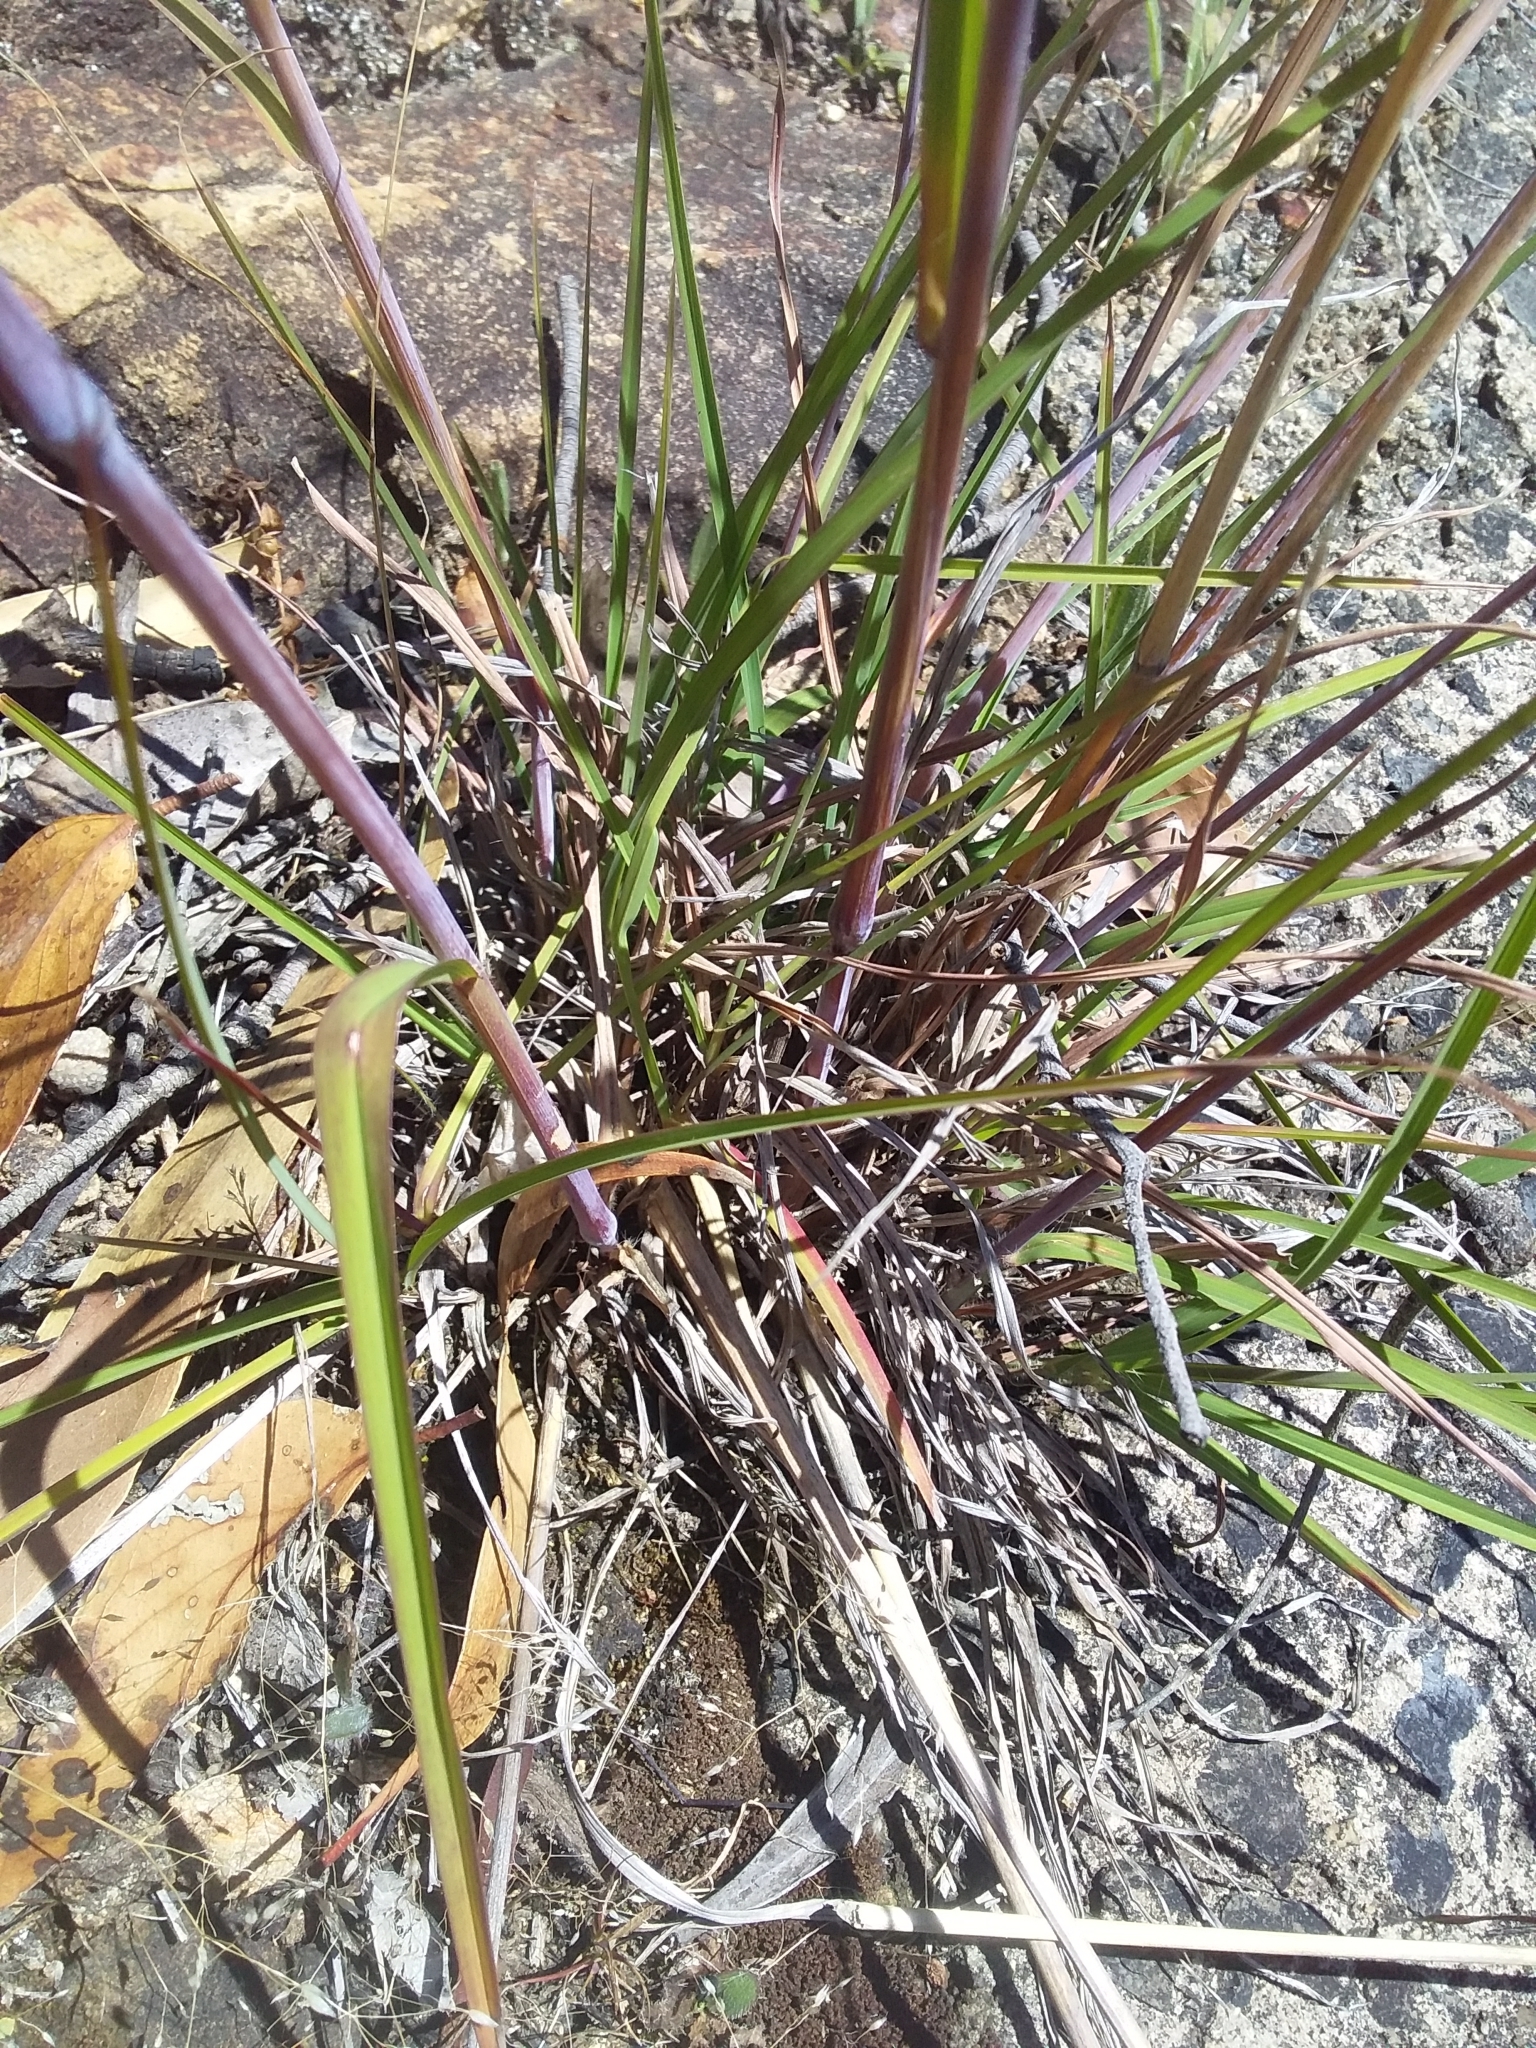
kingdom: Plantae
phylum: Tracheophyta
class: Liliopsida
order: Poales
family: Poaceae
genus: Themeda
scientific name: Themeda triandra
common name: Kangaroo grass
